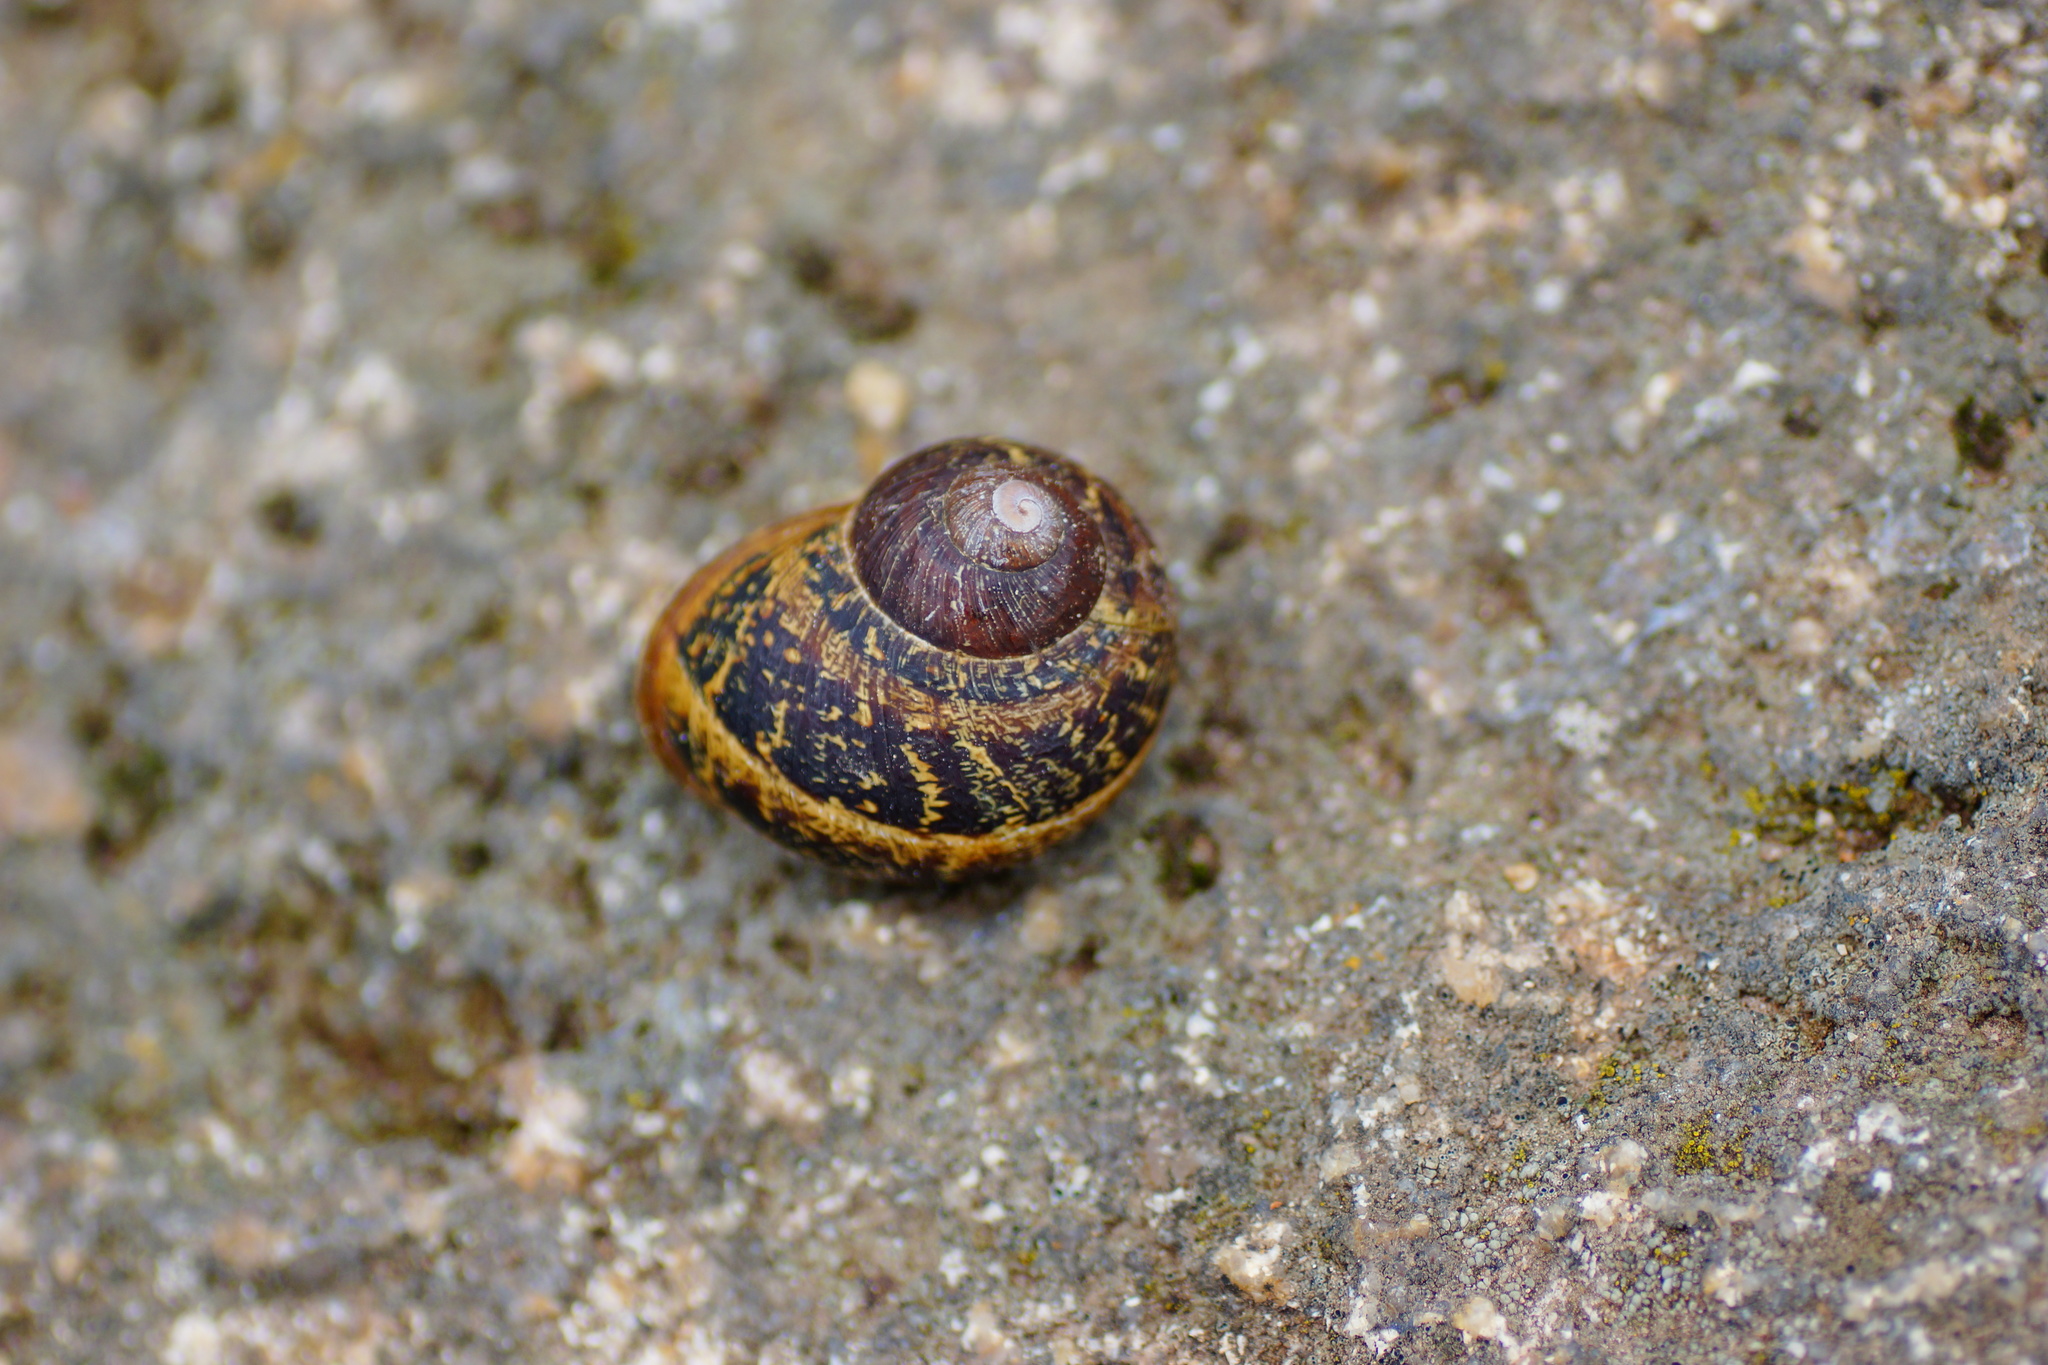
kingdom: Animalia
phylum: Mollusca
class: Gastropoda
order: Stylommatophora
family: Helicidae
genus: Cornu
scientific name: Cornu aspersum
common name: Brown garden snail
